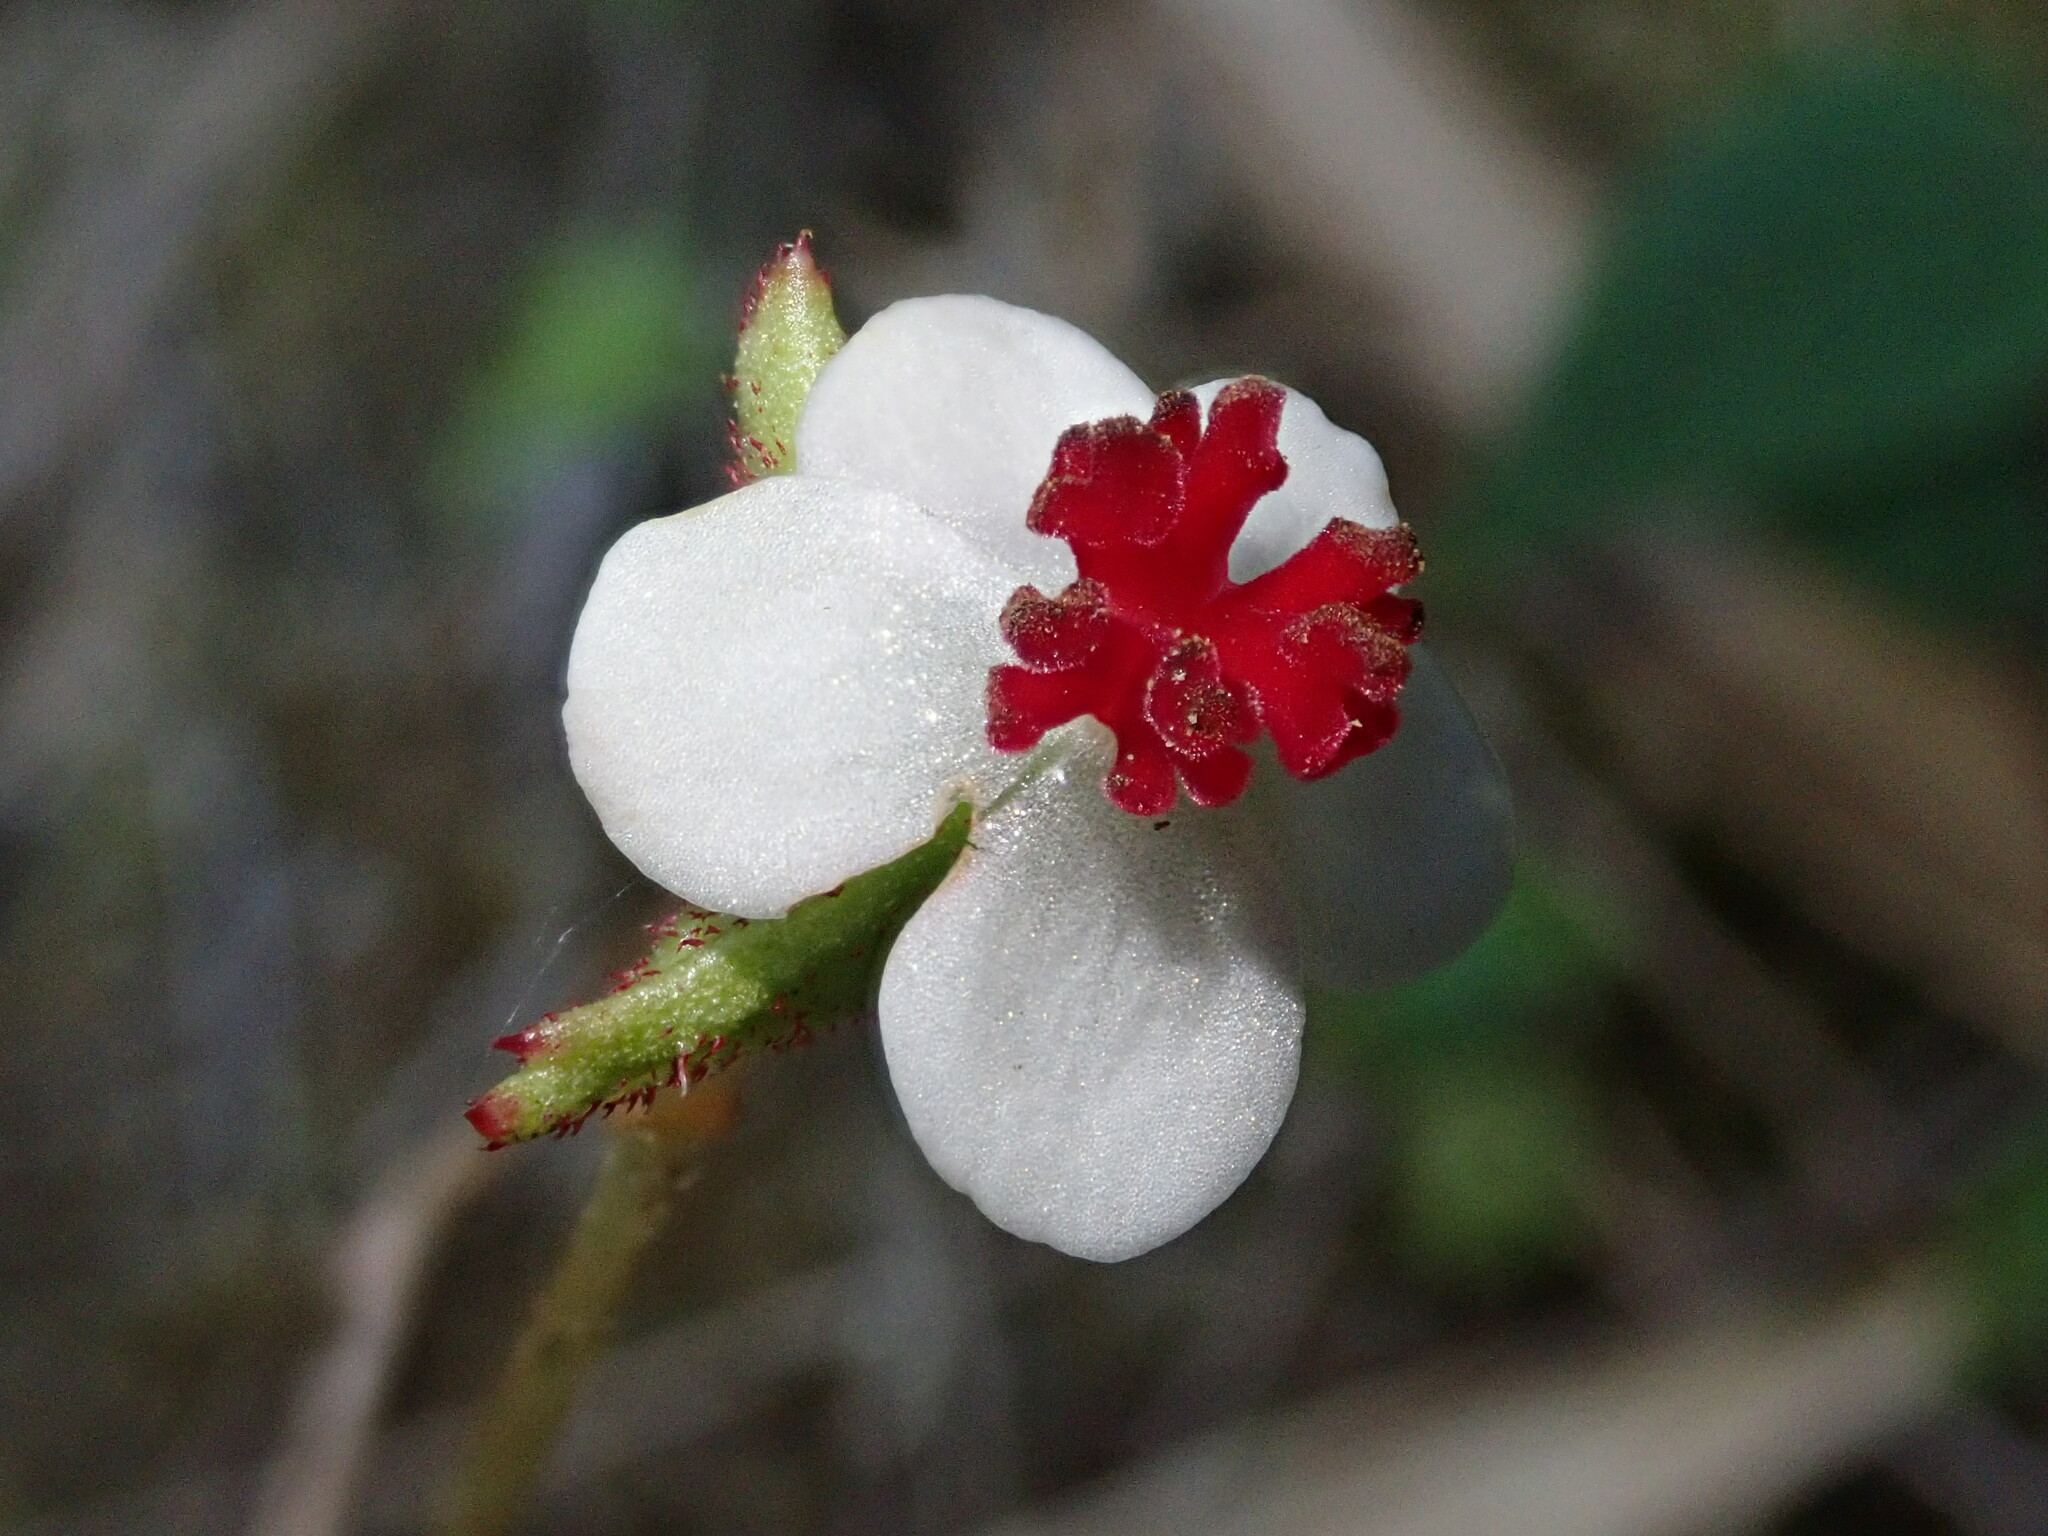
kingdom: Plantae
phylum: Tracheophyta
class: Magnoliopsida
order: Cucurbitales
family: Begoniaceae
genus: Begonia
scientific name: Begonia urticae
